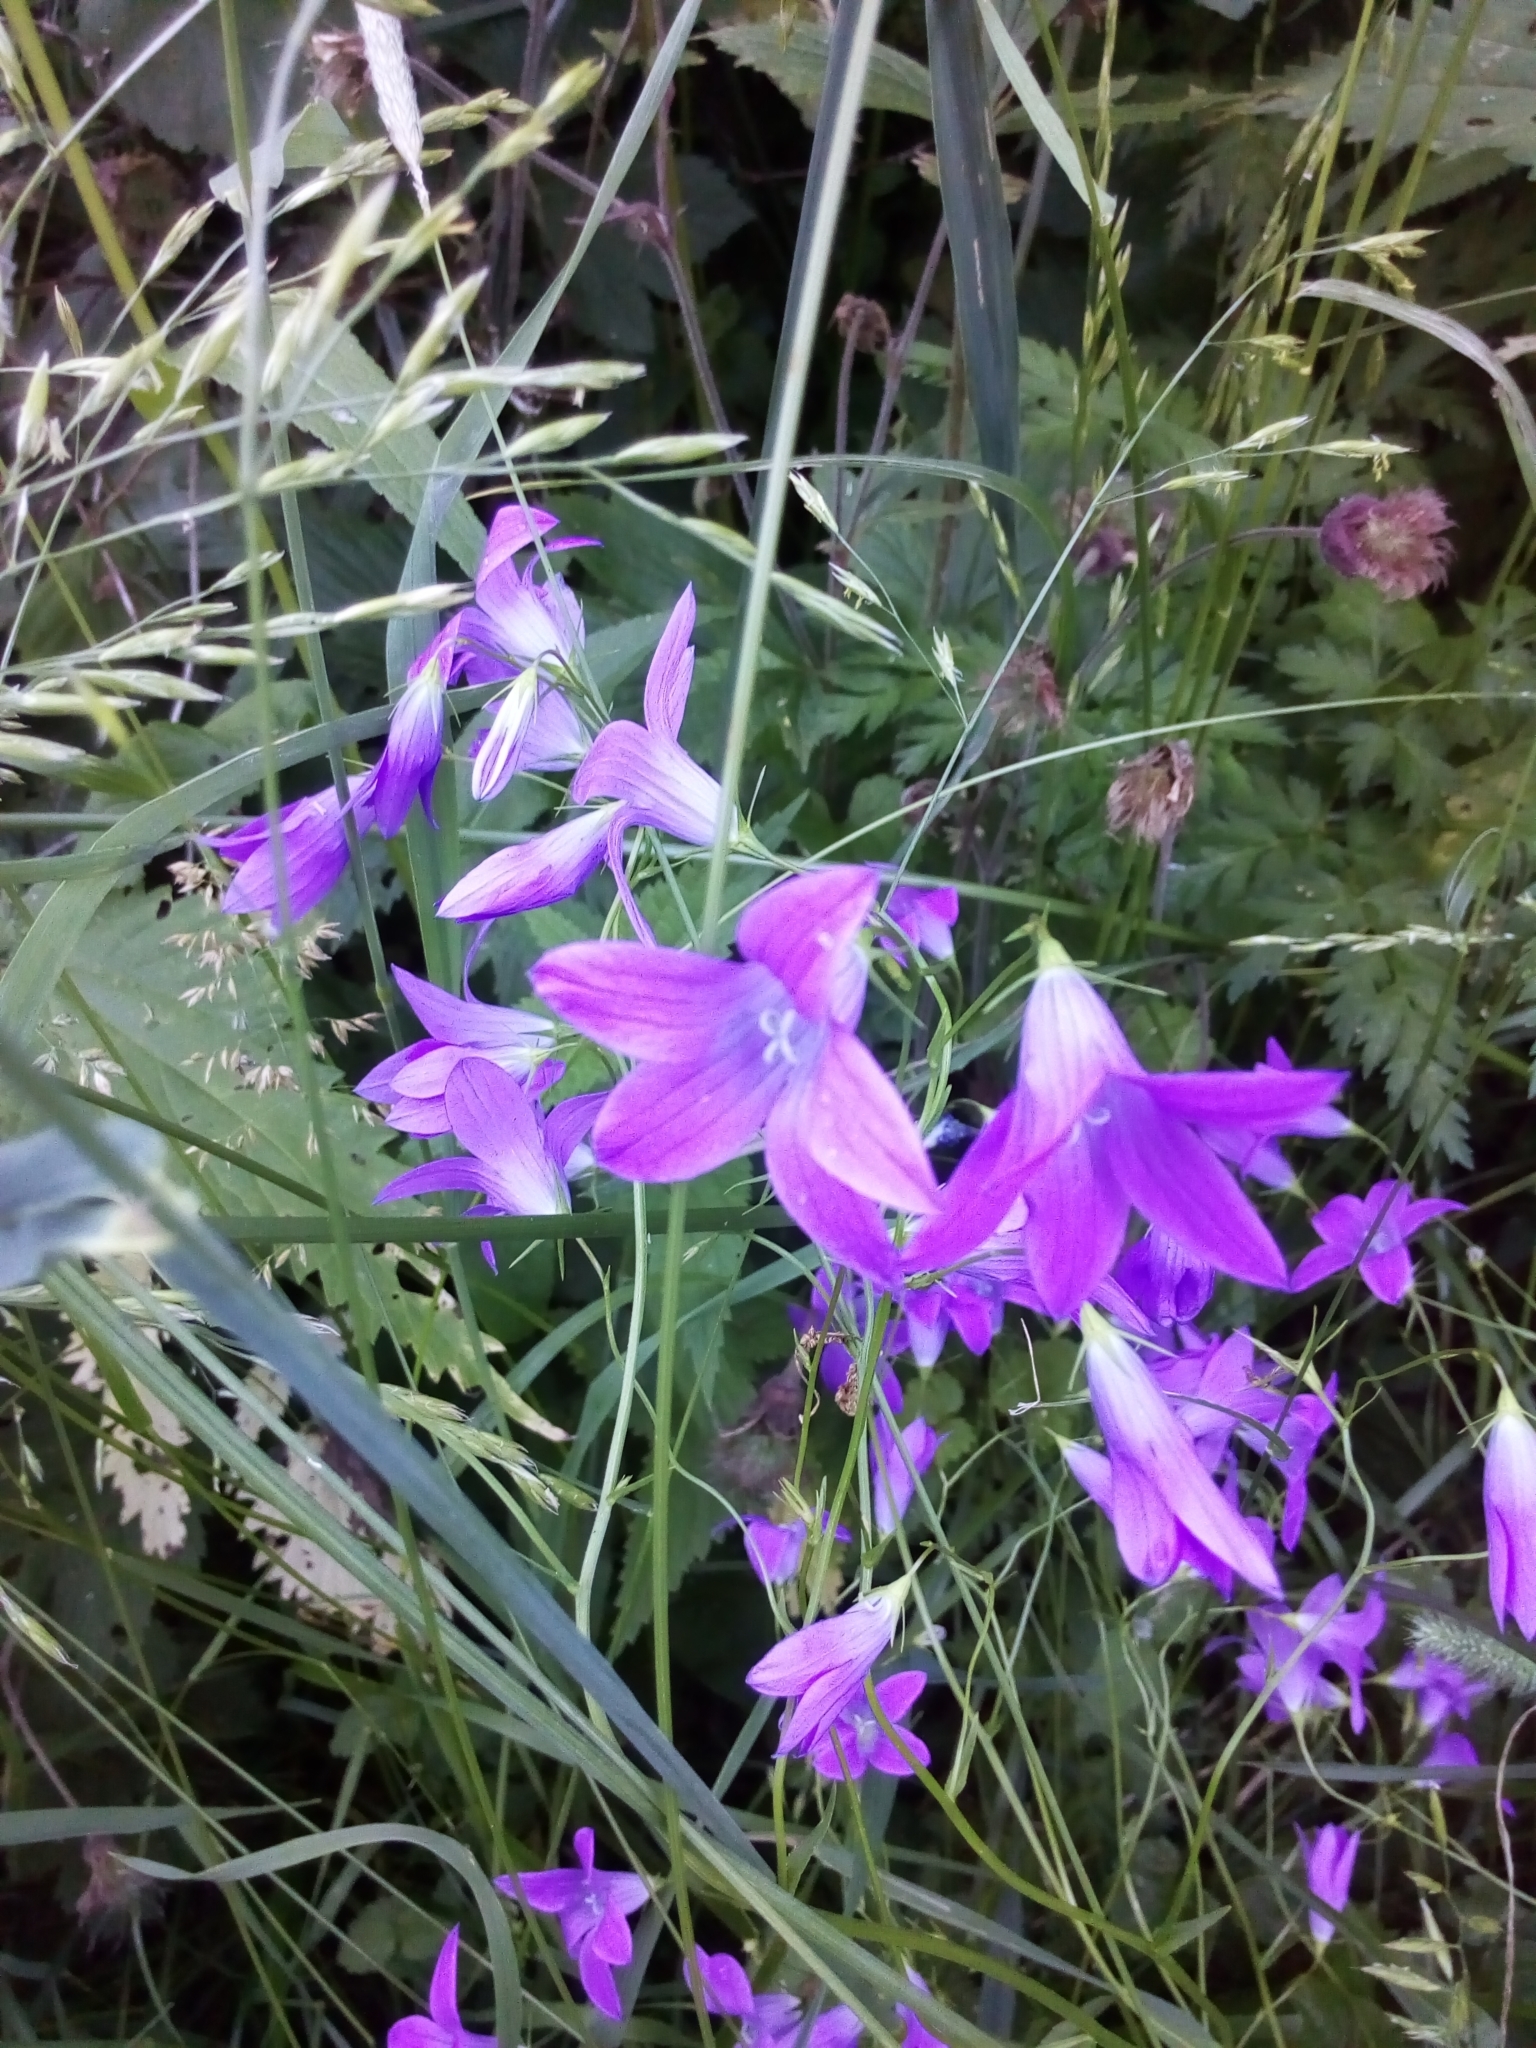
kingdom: Plantae
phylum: Tracheophyta
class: Magnoliopsida
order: Asterales
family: Campanulaceae
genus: Campanula
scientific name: Campanula patula
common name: Spreading bellflower
